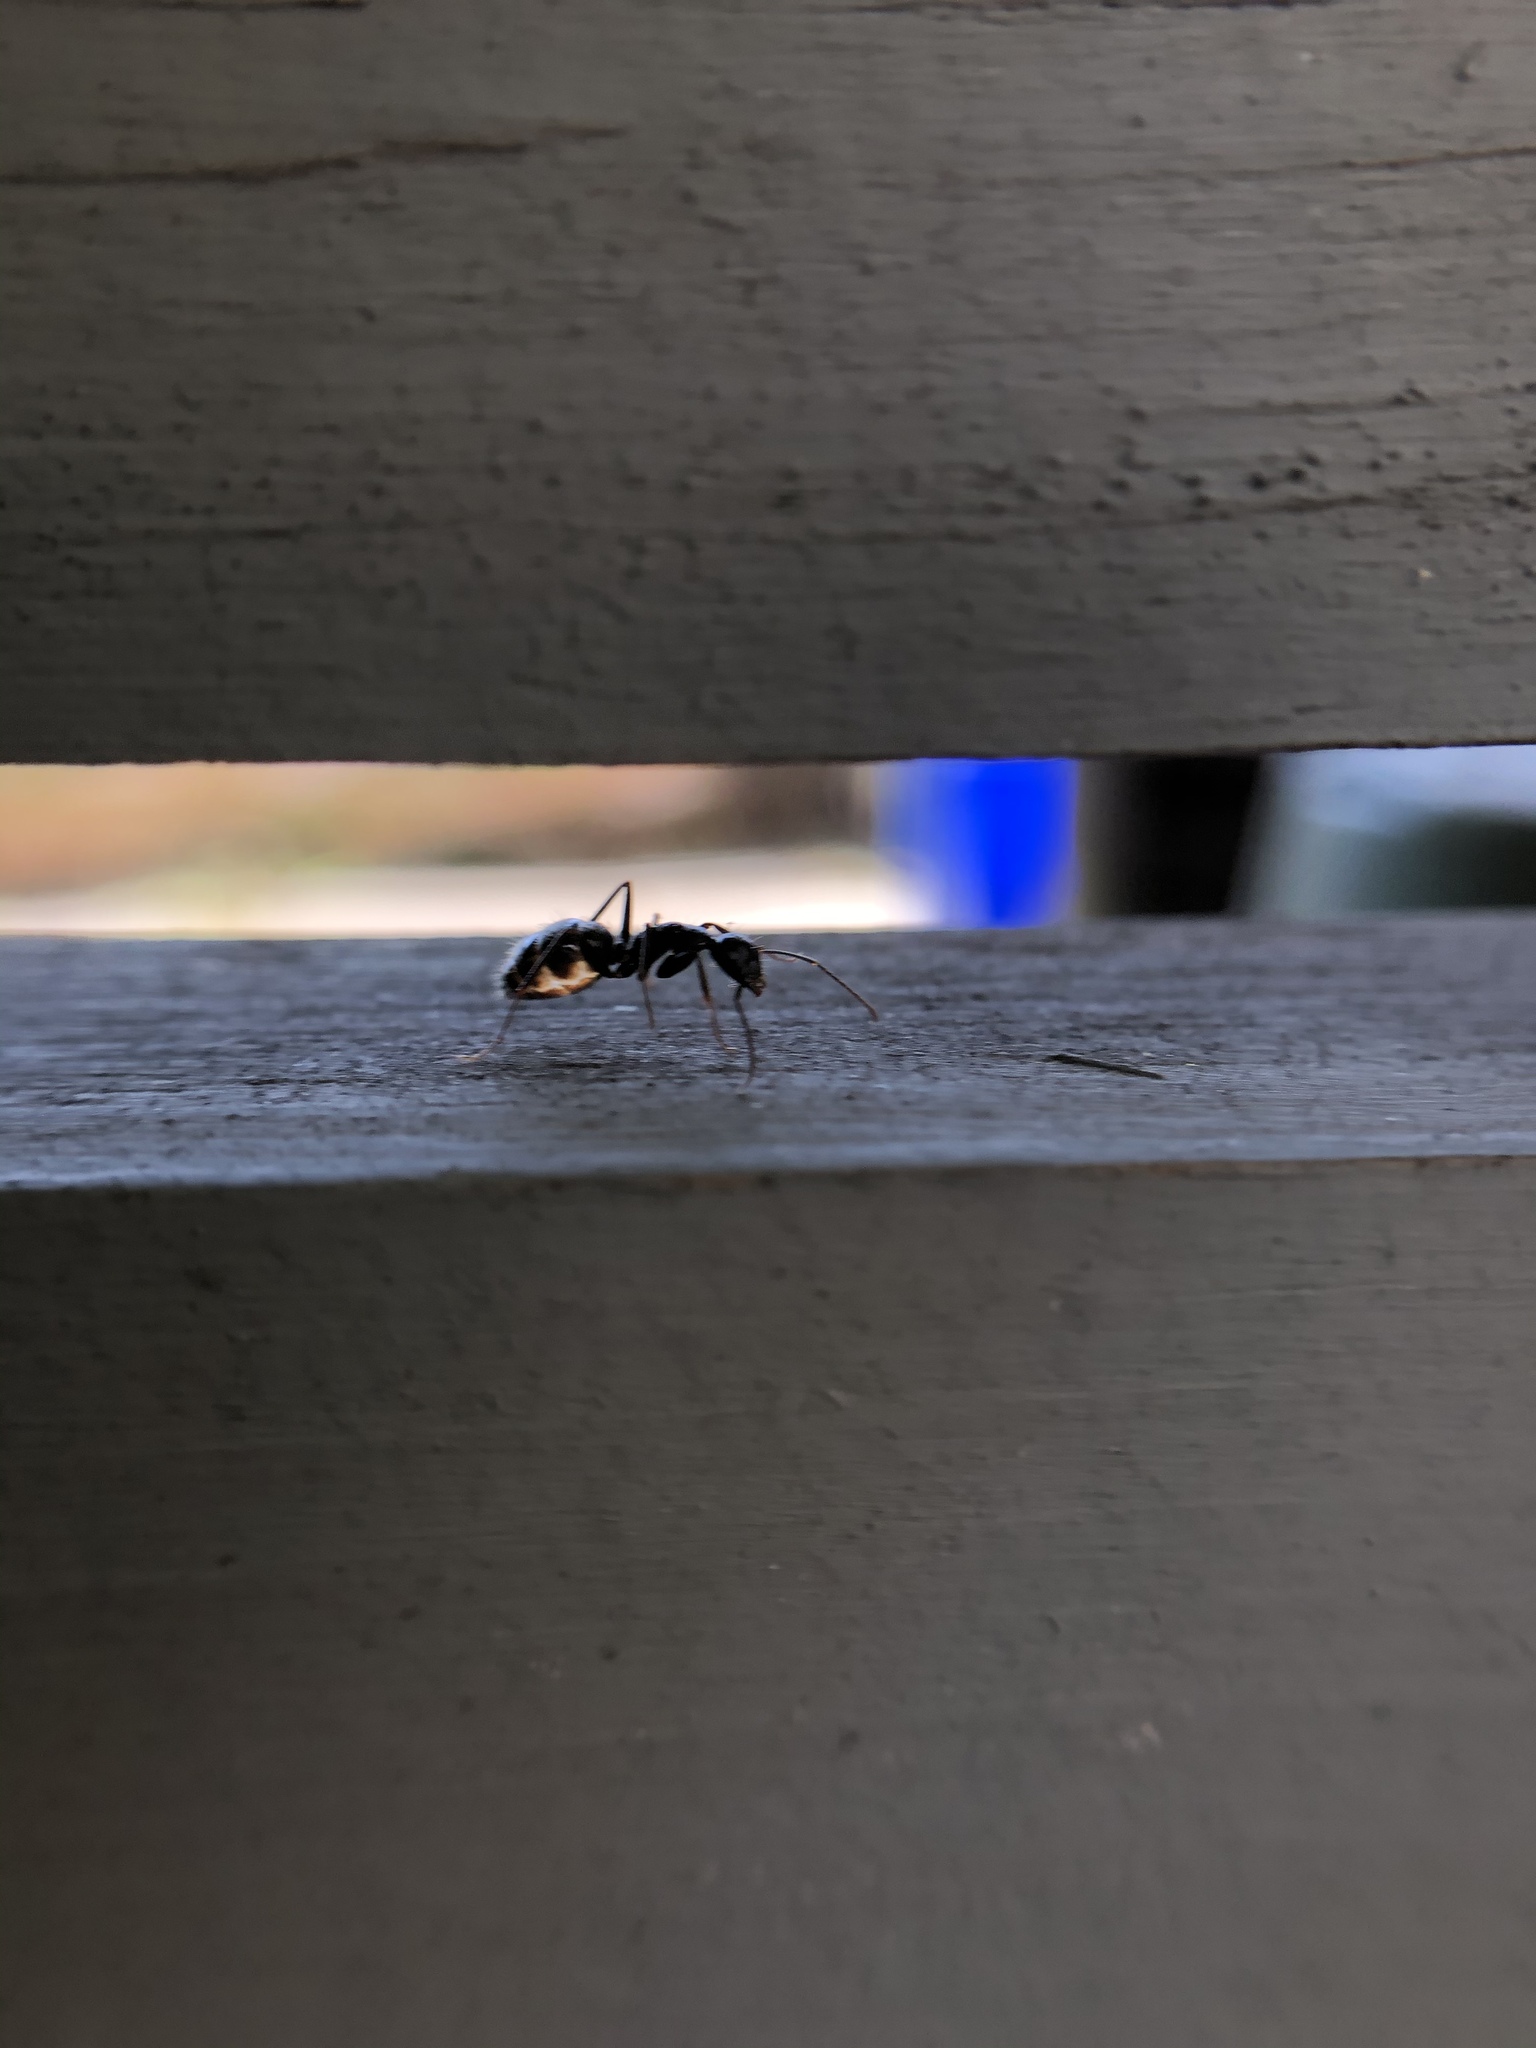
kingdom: Animalia
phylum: Arthropoda
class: Insecta
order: Hymenoptera
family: Formicidae
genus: Camponotus
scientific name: Camponotus pennsylvanicus
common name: Black carpenter ant
